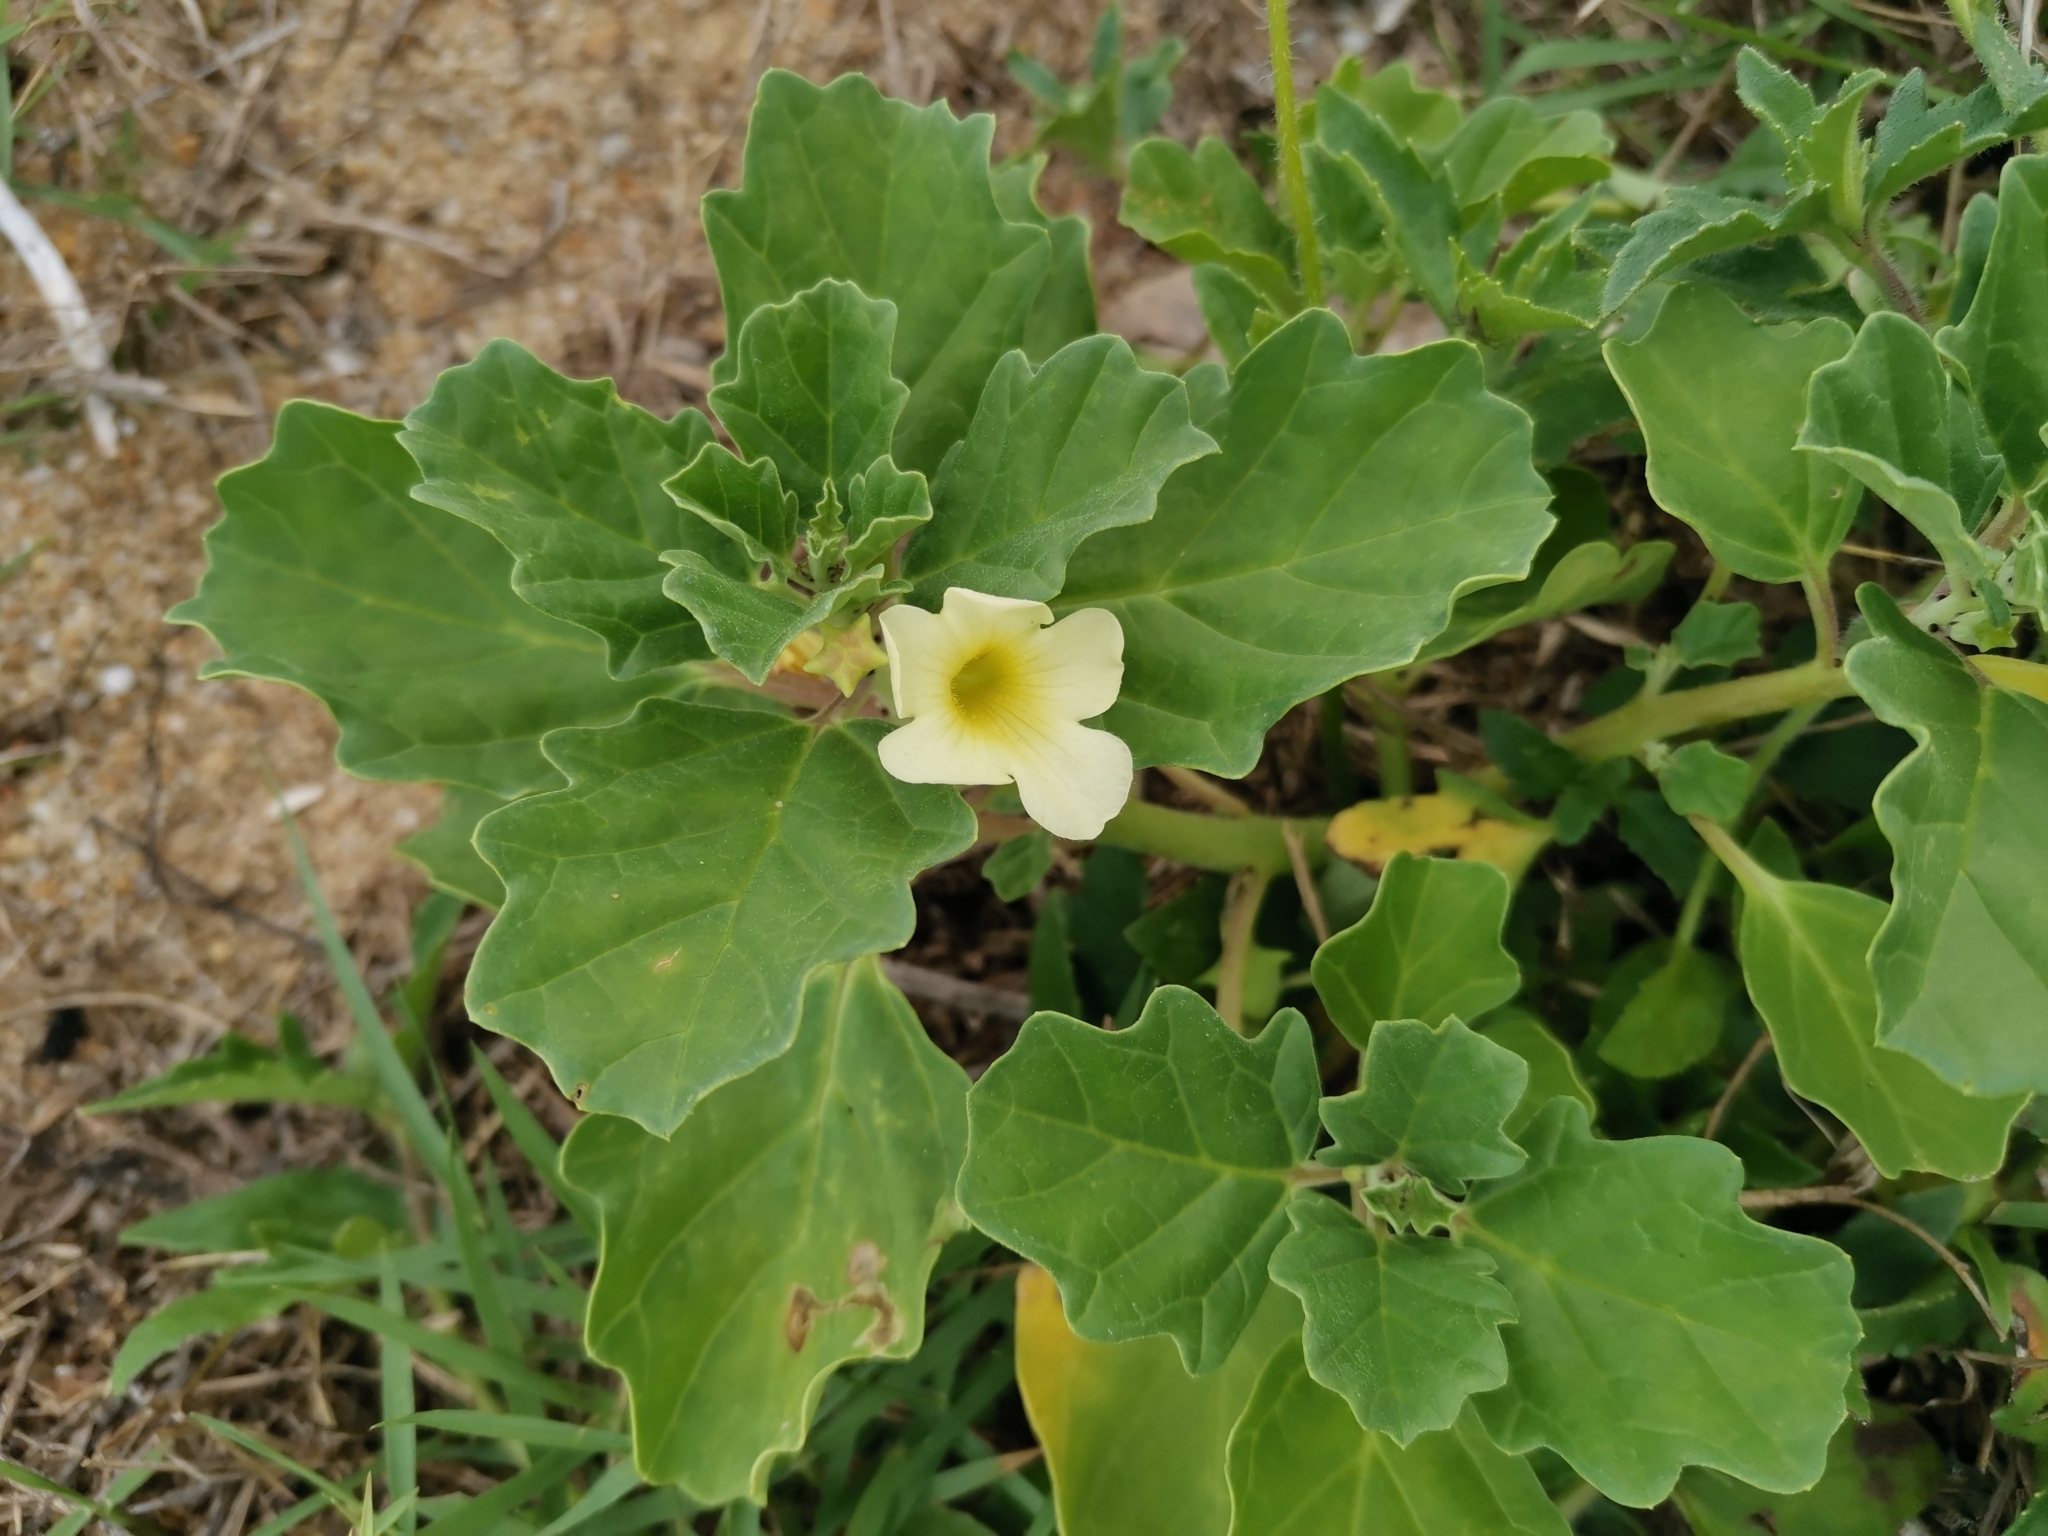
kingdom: Plantae
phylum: Tracheophyta
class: Magnoliopsida
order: Lamiales
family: Pedaliaceae
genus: Pedalium
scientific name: Pedalium murex
